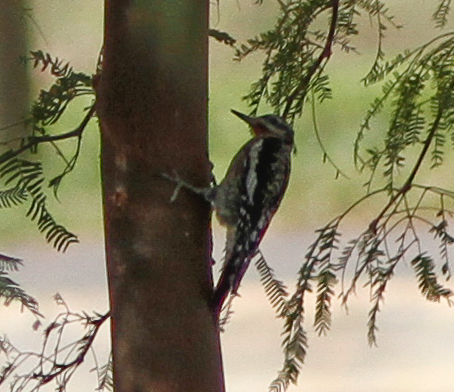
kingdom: Animalia
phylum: Chordata
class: Aves
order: Piciformes
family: Picidae
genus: Sphyrapicus
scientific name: Sphyrapicus nuchalis
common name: Red-naped sapsucker
